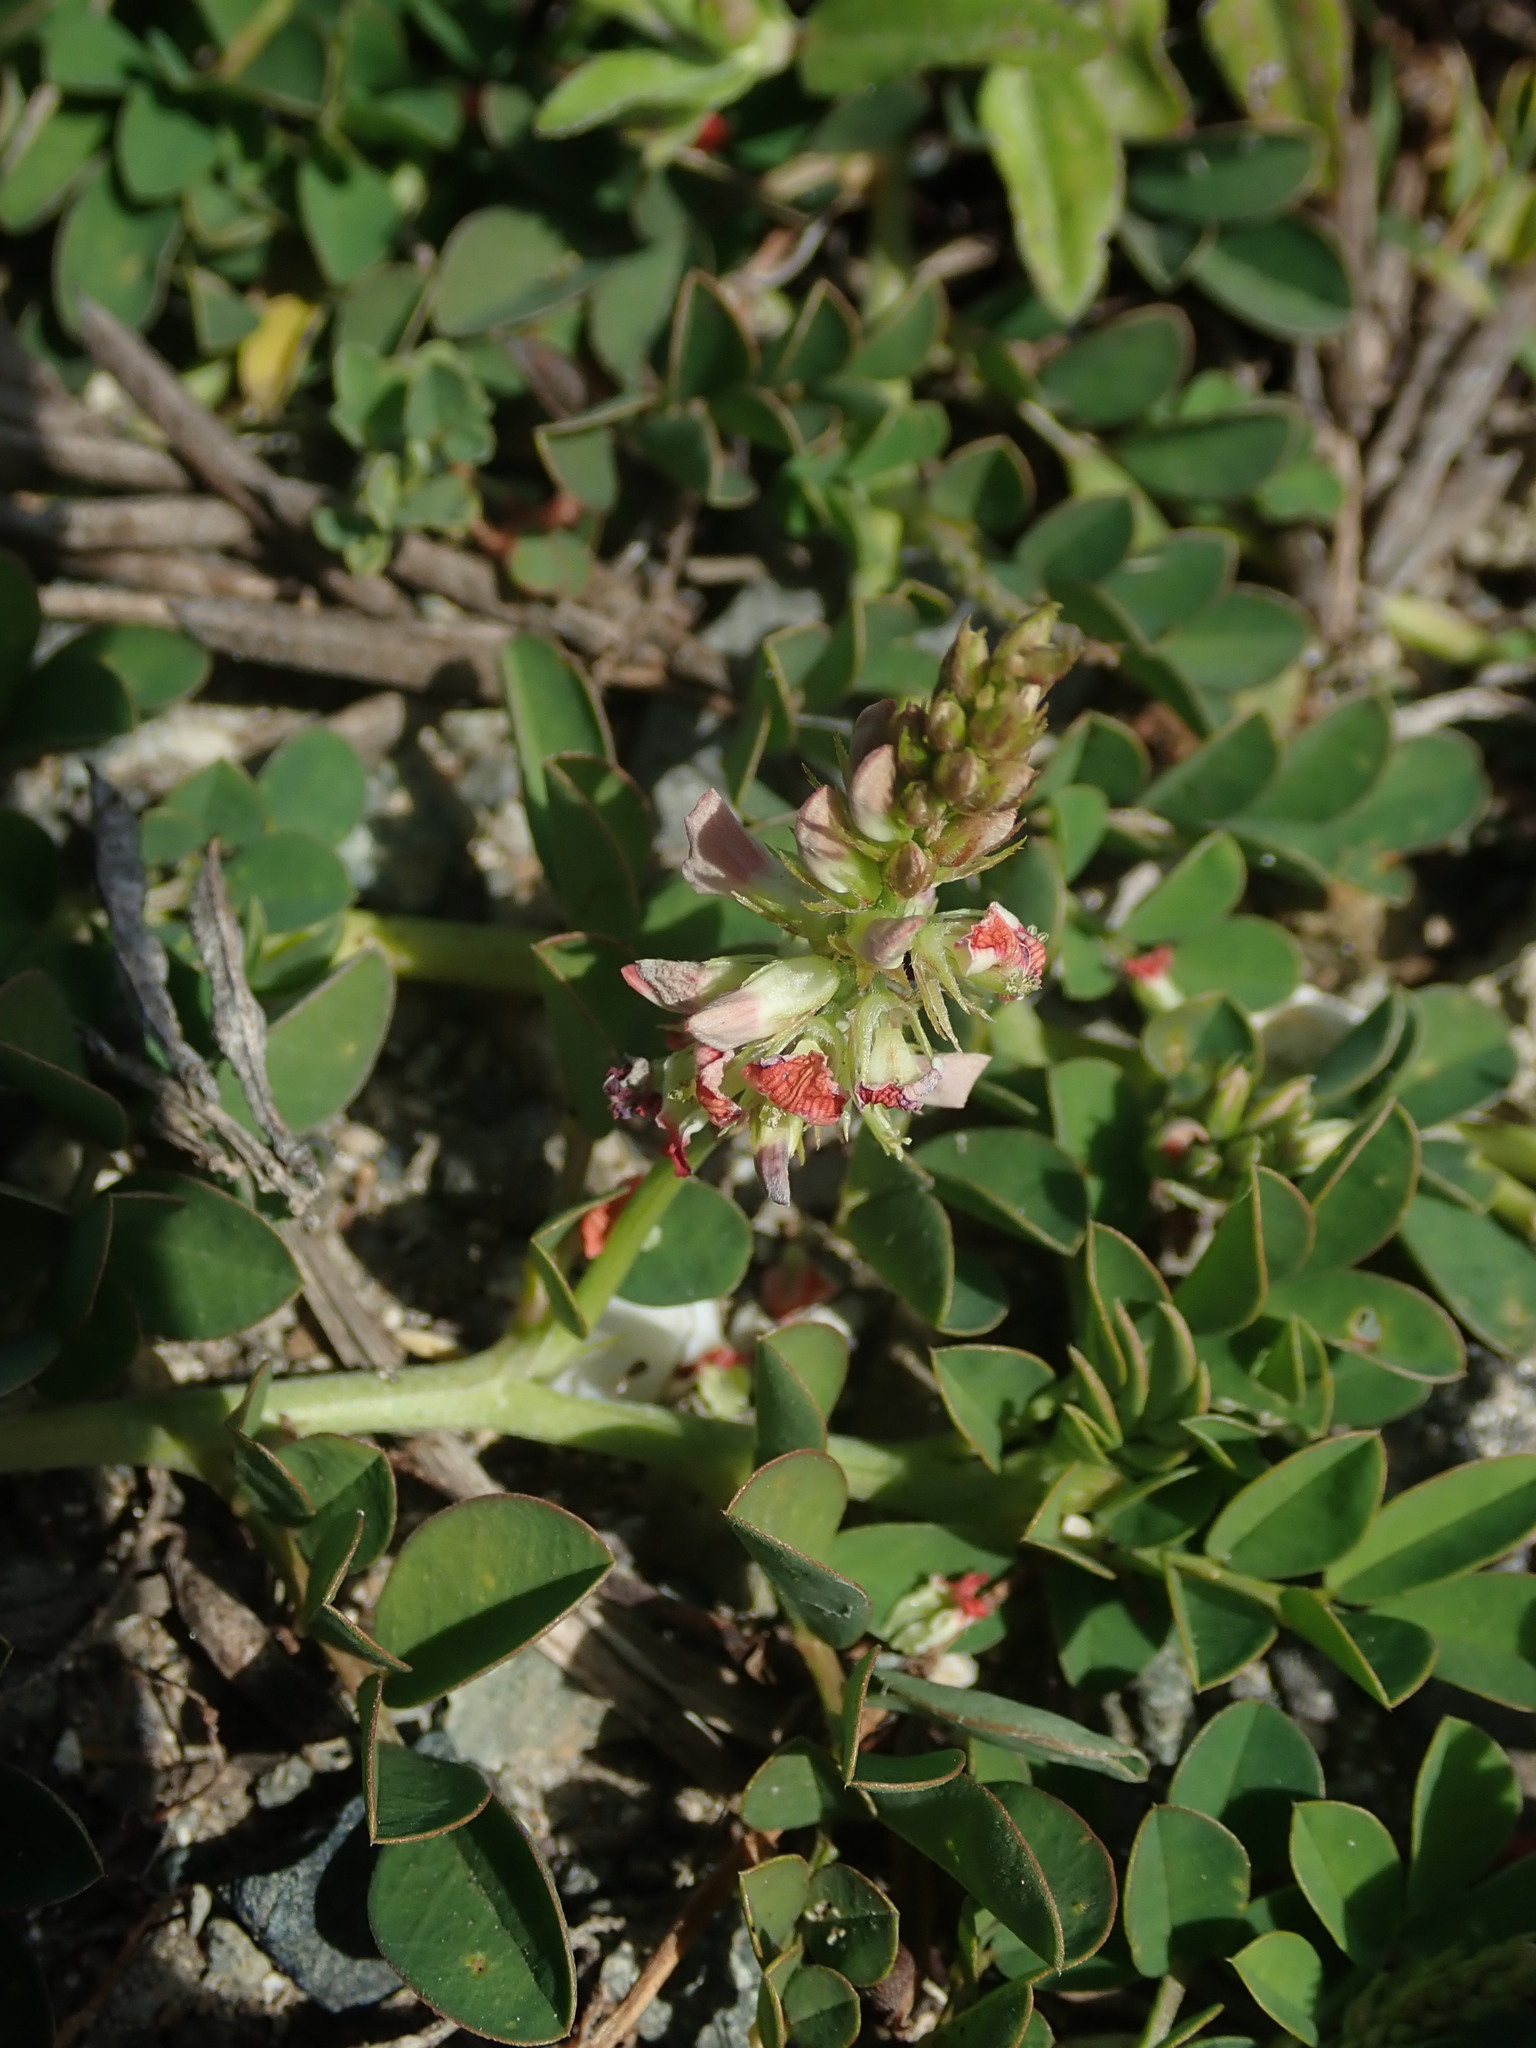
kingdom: Plantae
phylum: Tracheophyta
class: Magnoliopsida
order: Fabales
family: Fabaceae
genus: Indigofera
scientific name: Indigofera spicata
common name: Creeping indigo
